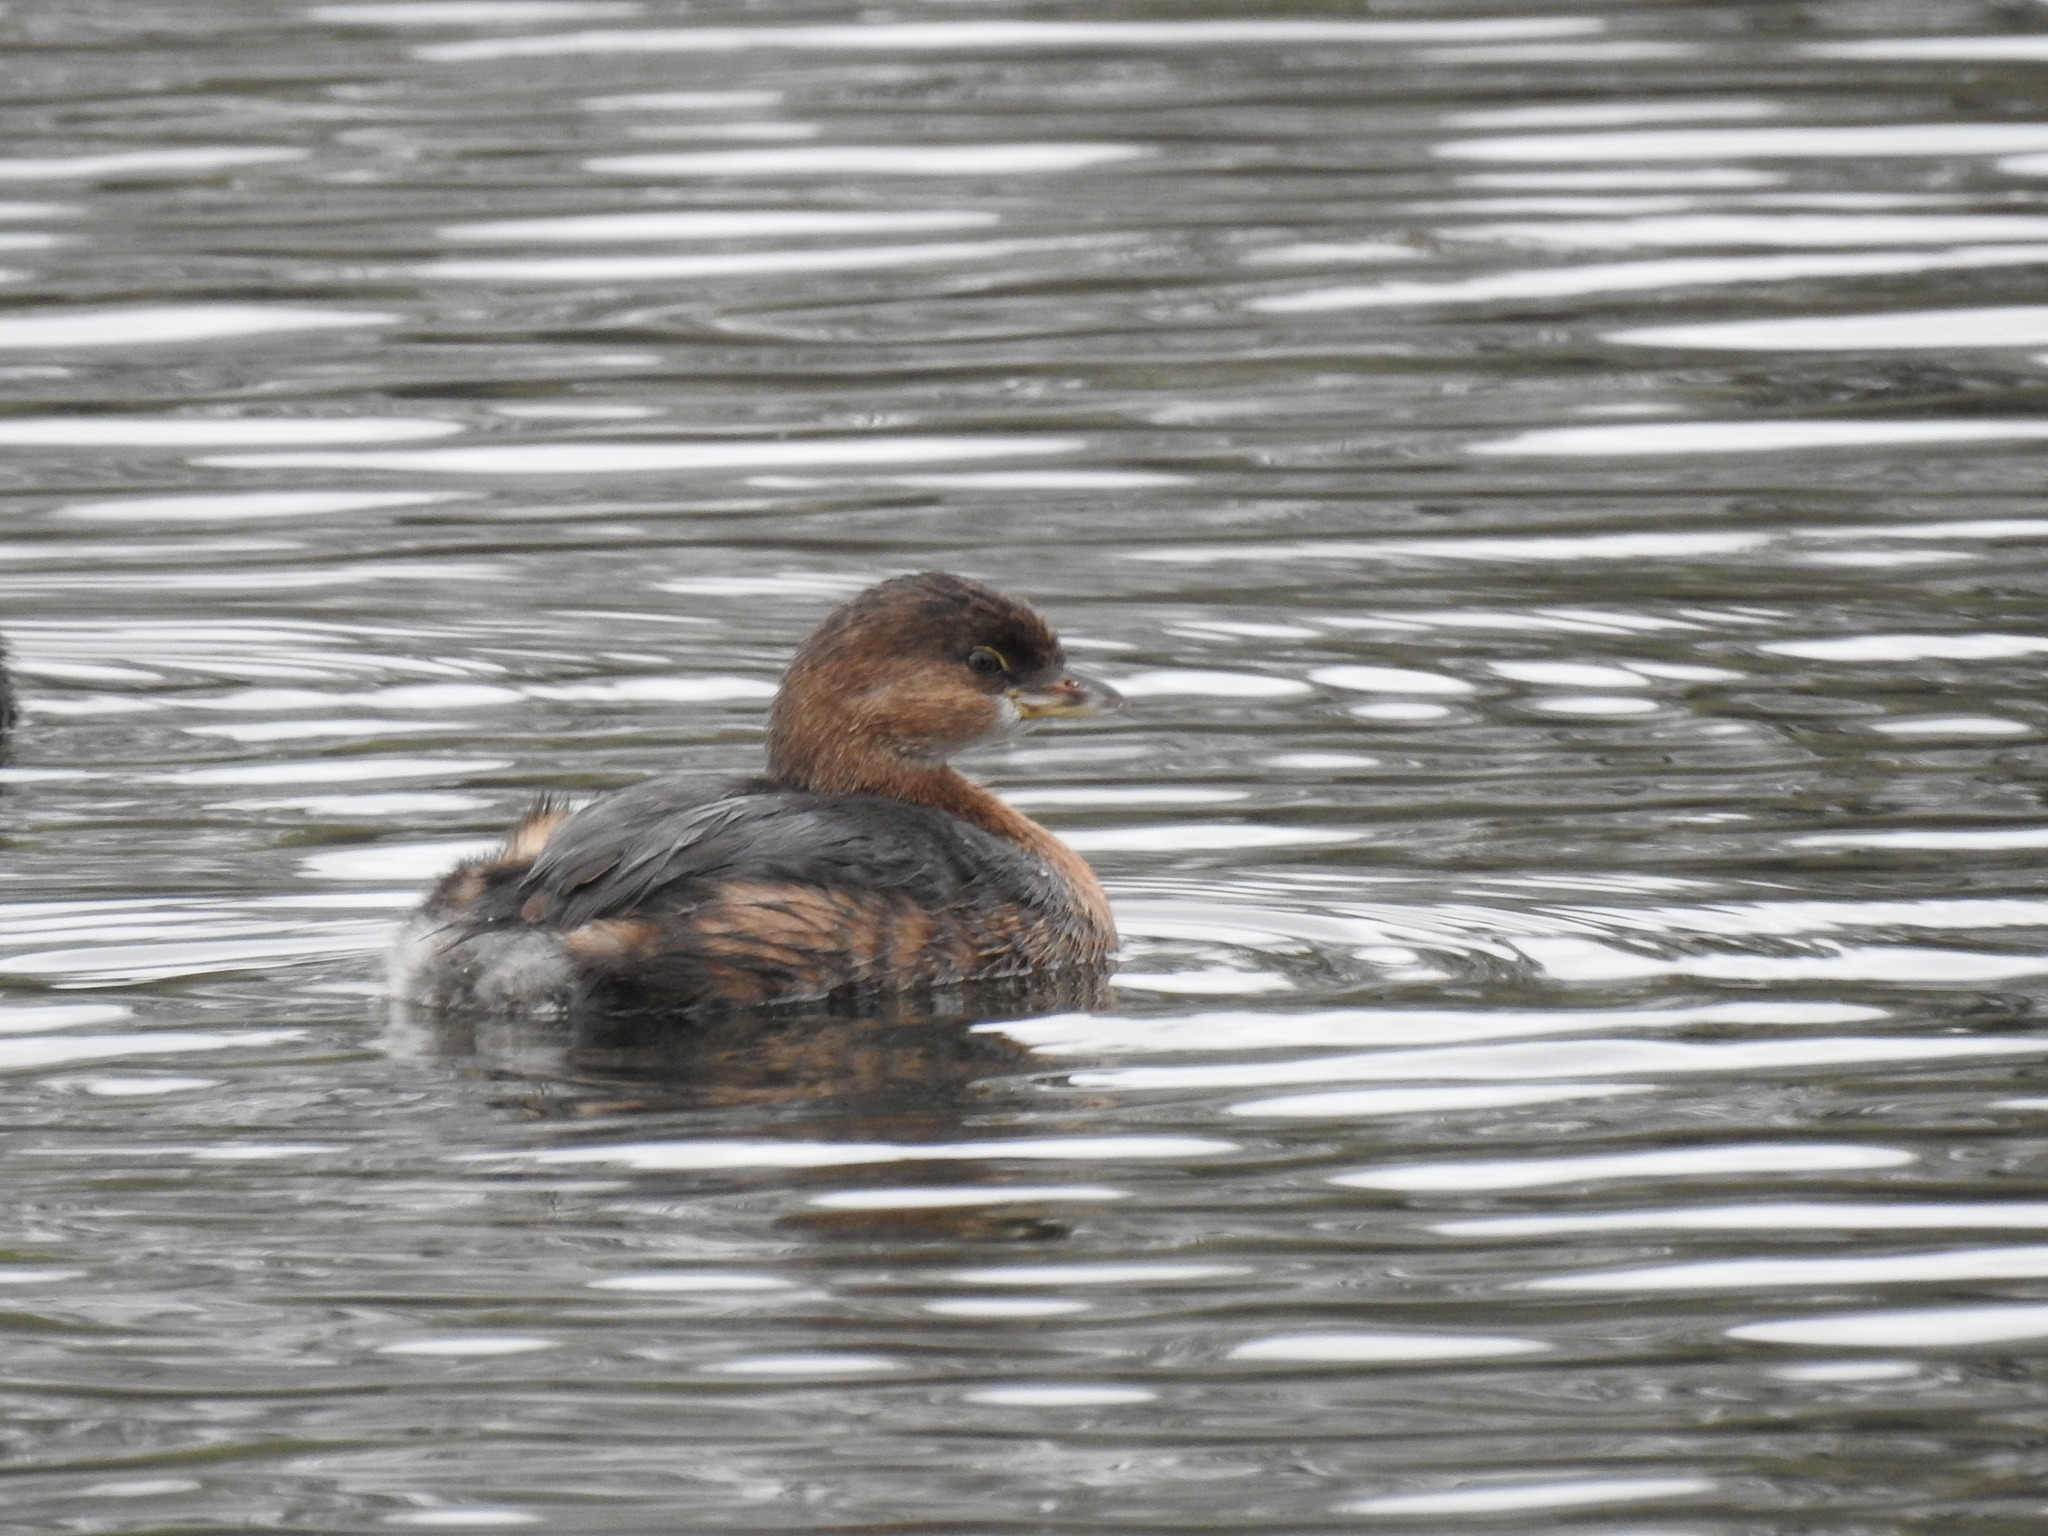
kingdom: Animalia
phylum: Chordata
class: Aves
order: Podicipediformes
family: Podicipedidae
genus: Podilymbus
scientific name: Podilymbus podiceps
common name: Pied-billed grebe
